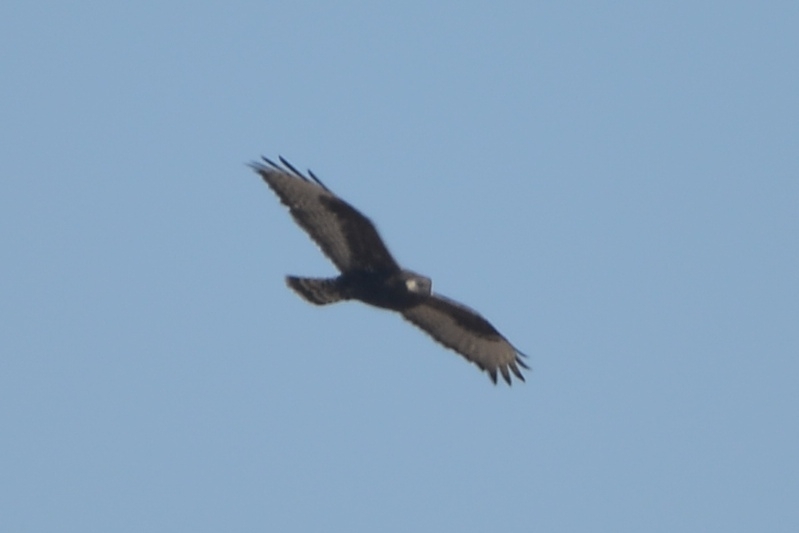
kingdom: Animalia
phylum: Chordata
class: Aves
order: Accipitriformes
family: Accipitridae
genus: Buteo
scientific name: Buteo lagopus
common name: Rough-legged buzzard
